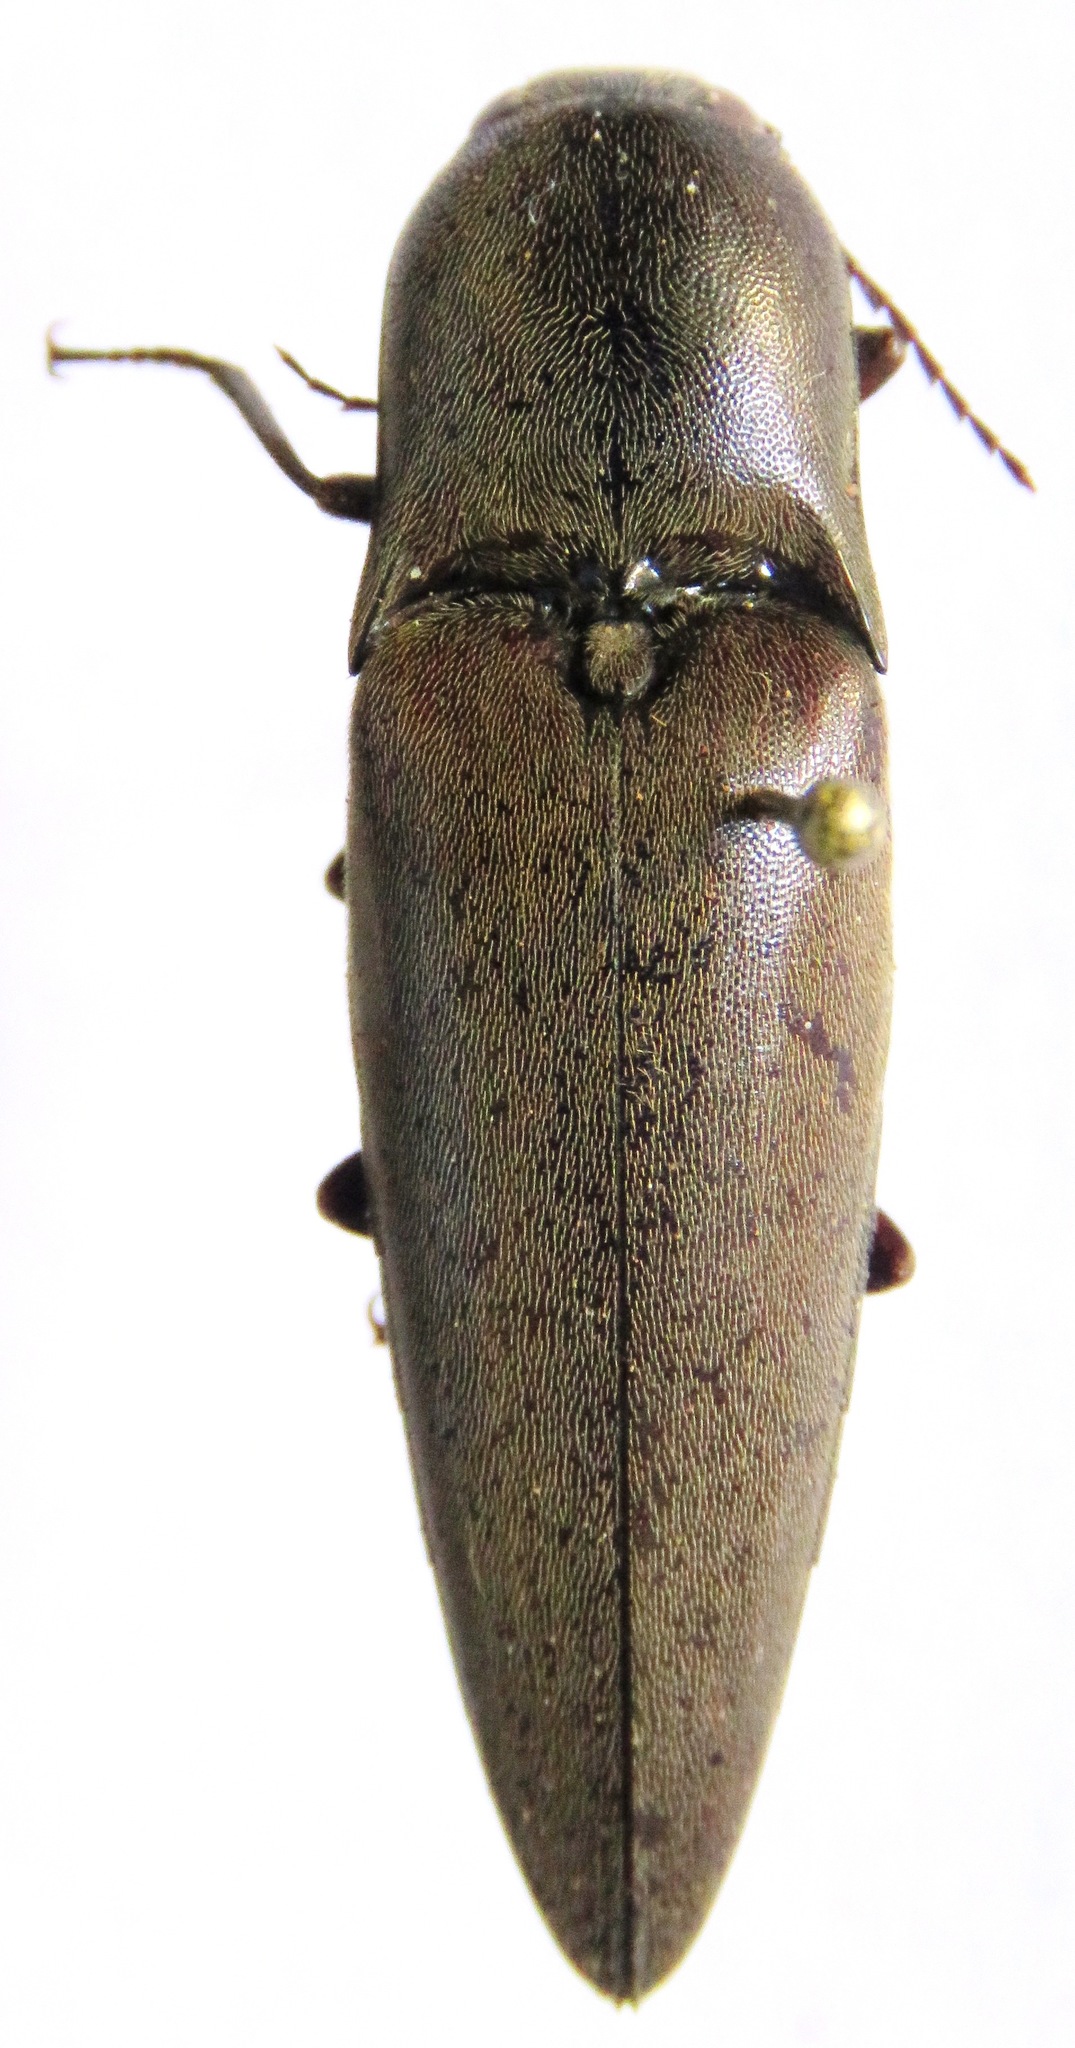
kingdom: Animalia
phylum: Arthropoda
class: Insecta
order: Coleoptera
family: Elateridae
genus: Orthostethus
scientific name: Orthostethus infuscatus
